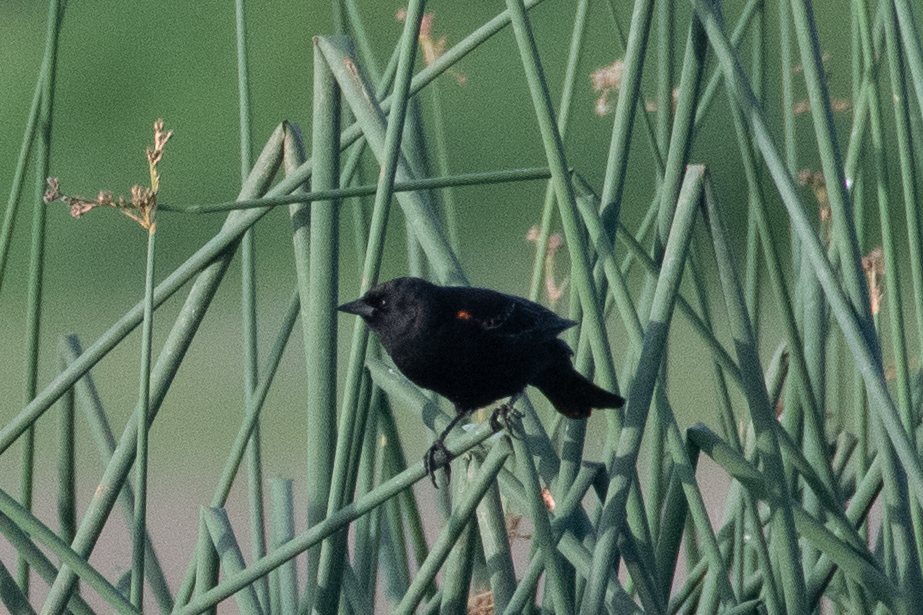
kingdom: Animalia
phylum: Chordata
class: Aves
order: Passeriformes
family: Icteridae
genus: Agelaius
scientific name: Agelaius phoeniceus
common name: Red-winged blackbird
